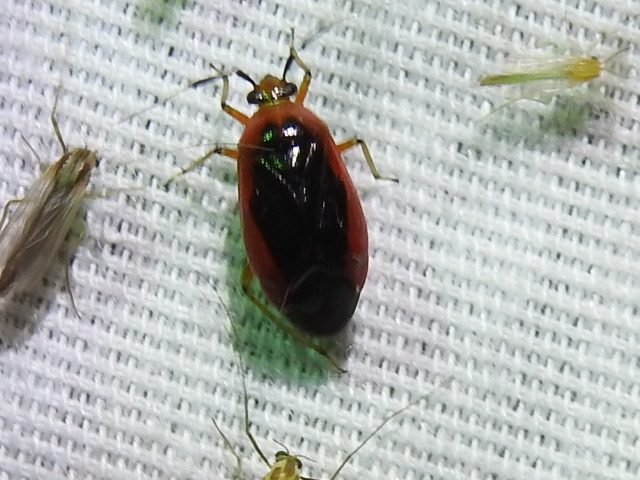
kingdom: Animalia
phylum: Arthropoda
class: Insecta
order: Hemiptera
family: Miridae
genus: Metriorrhynchomiris
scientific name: Metriorrhynchomiris dislocatus
